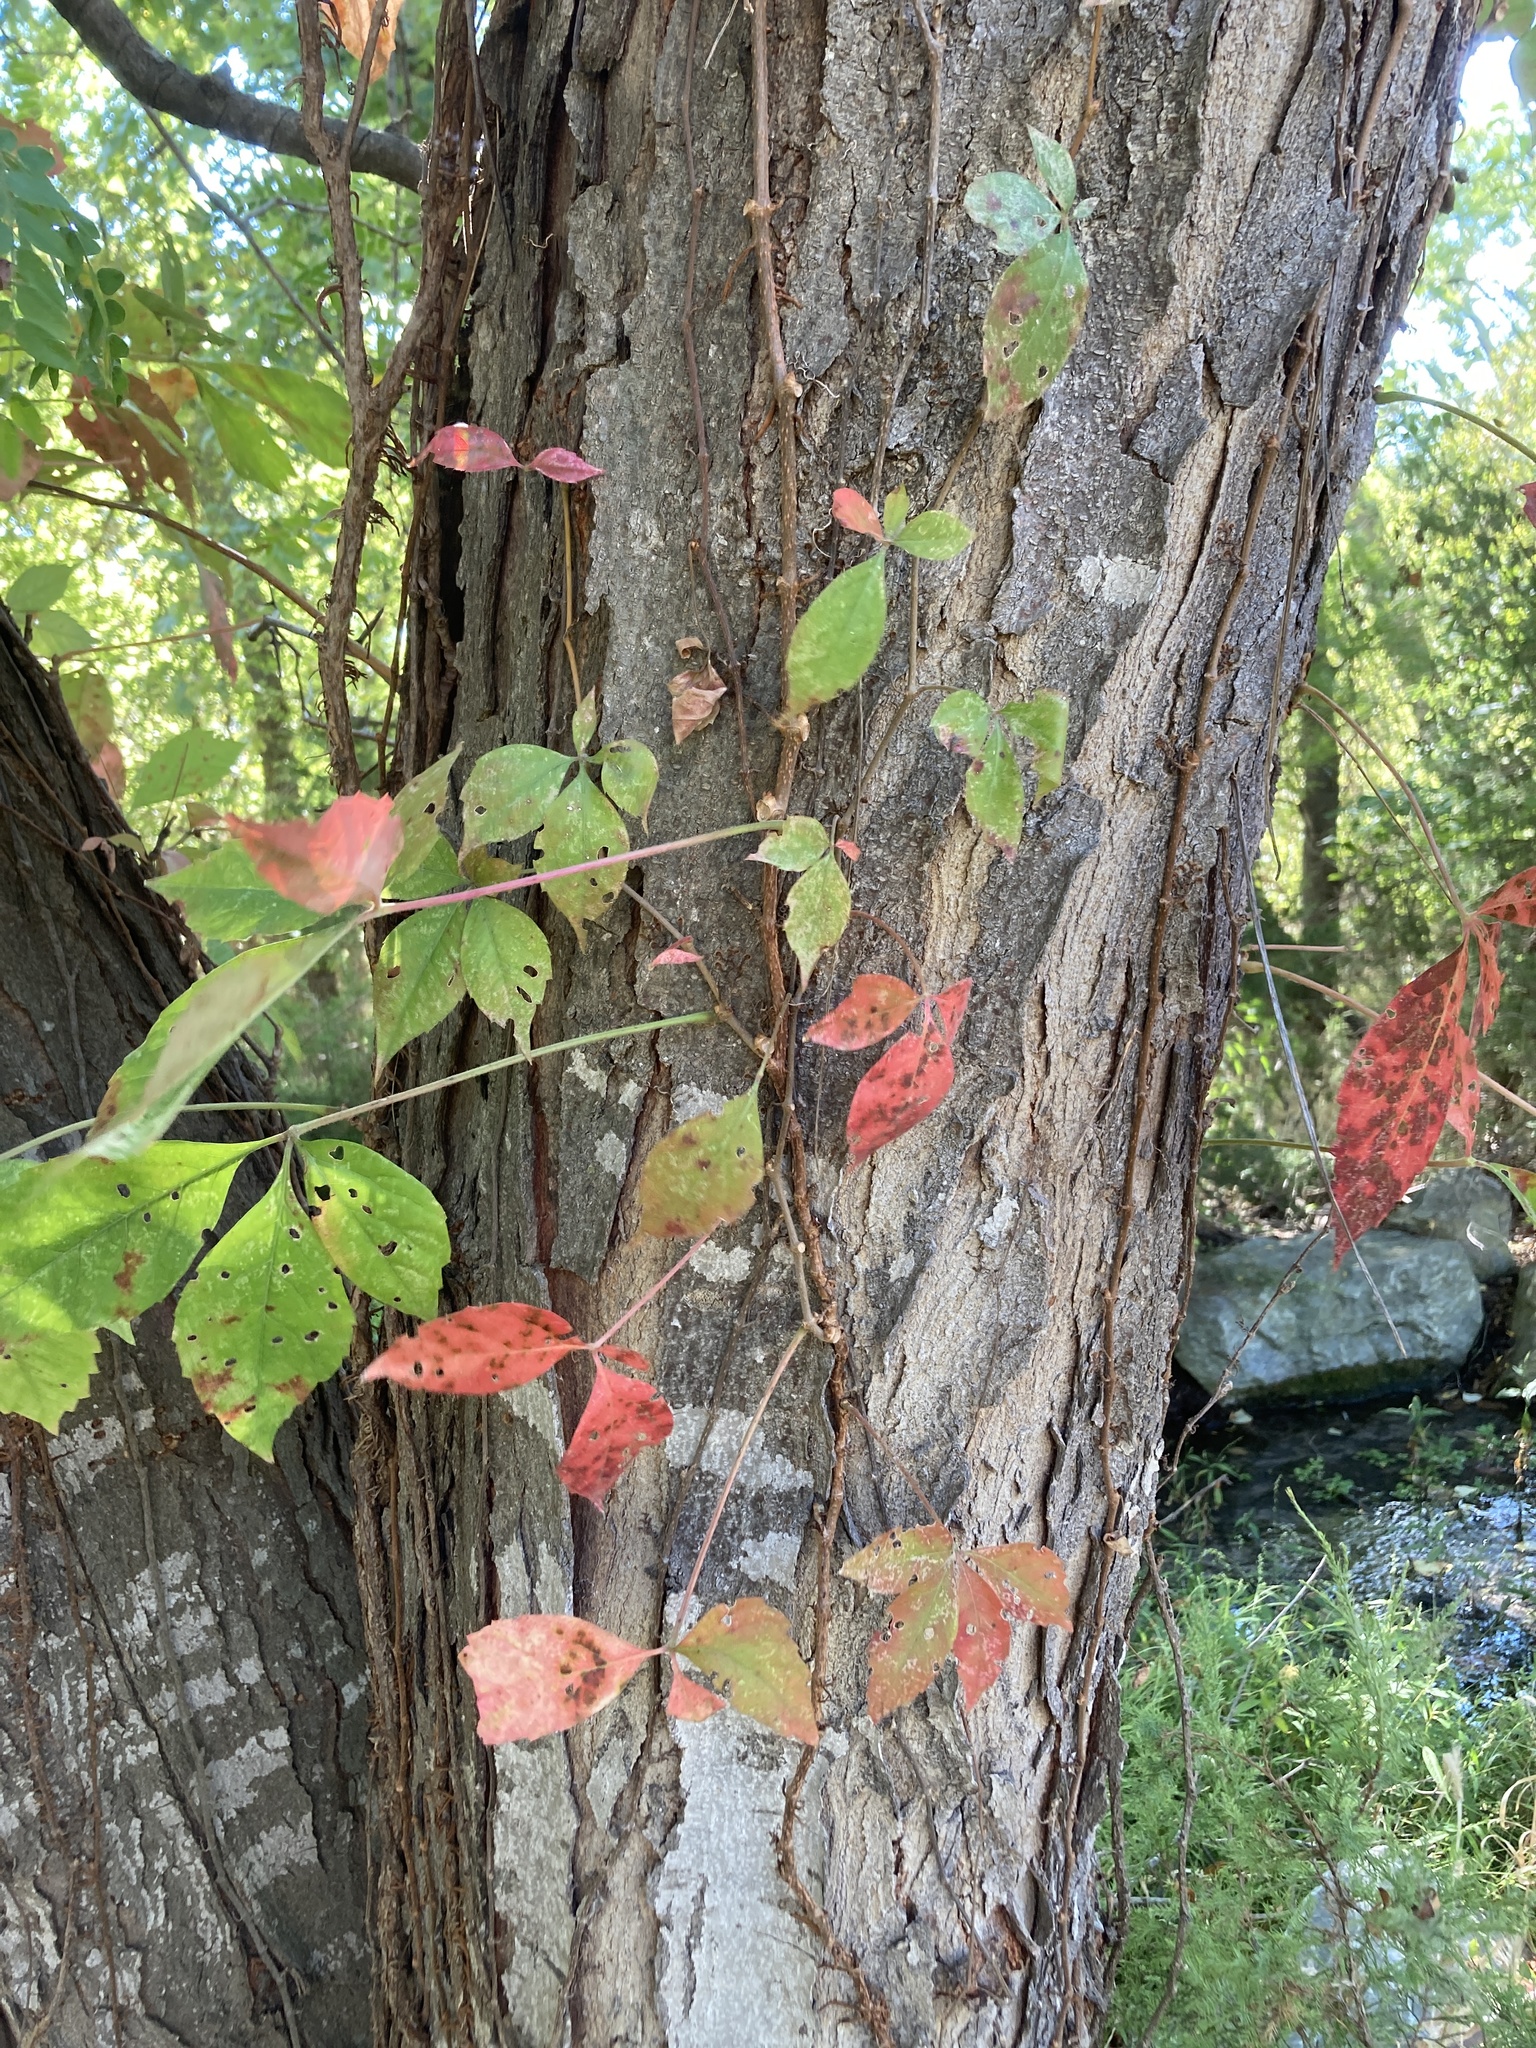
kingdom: Plantae
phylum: Tracheophyta
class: Magnoliopsida
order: Vitales
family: Vitaceae
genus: Parthenocissus
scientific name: Parthenocissus quinquefolia
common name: Virginia-creeper
